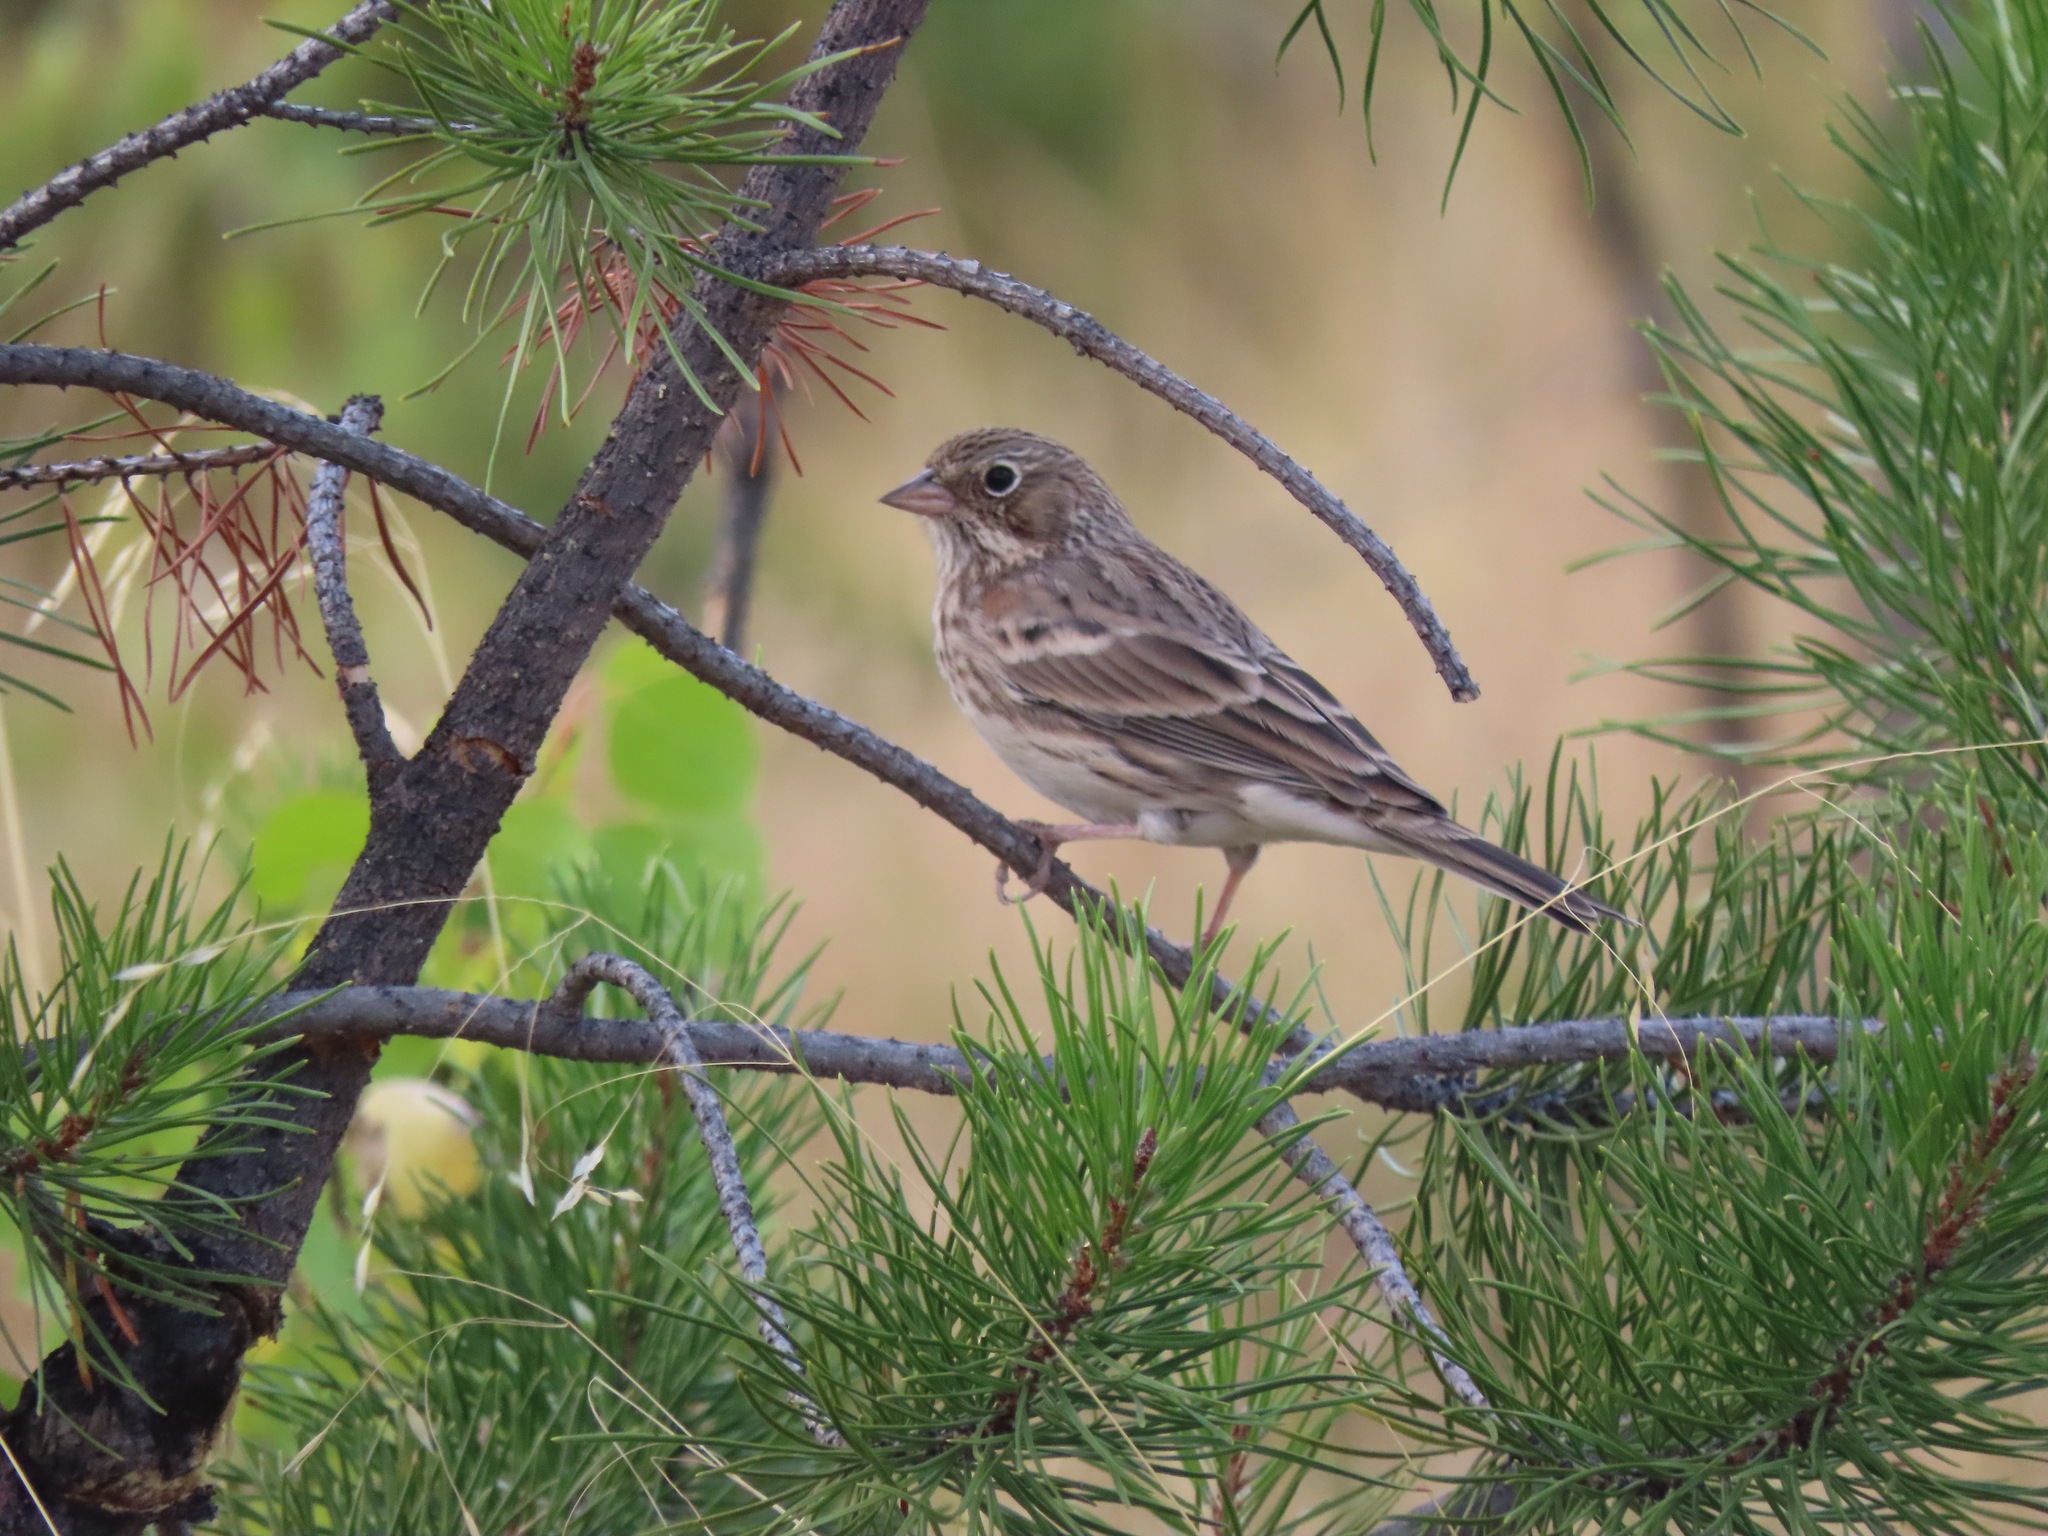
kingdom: Animalia
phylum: Chordata
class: Aves
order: Passeriformes
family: Passerellidae
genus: Pooecetes
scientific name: Pooecetes gramineus
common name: Vesper sparrow
